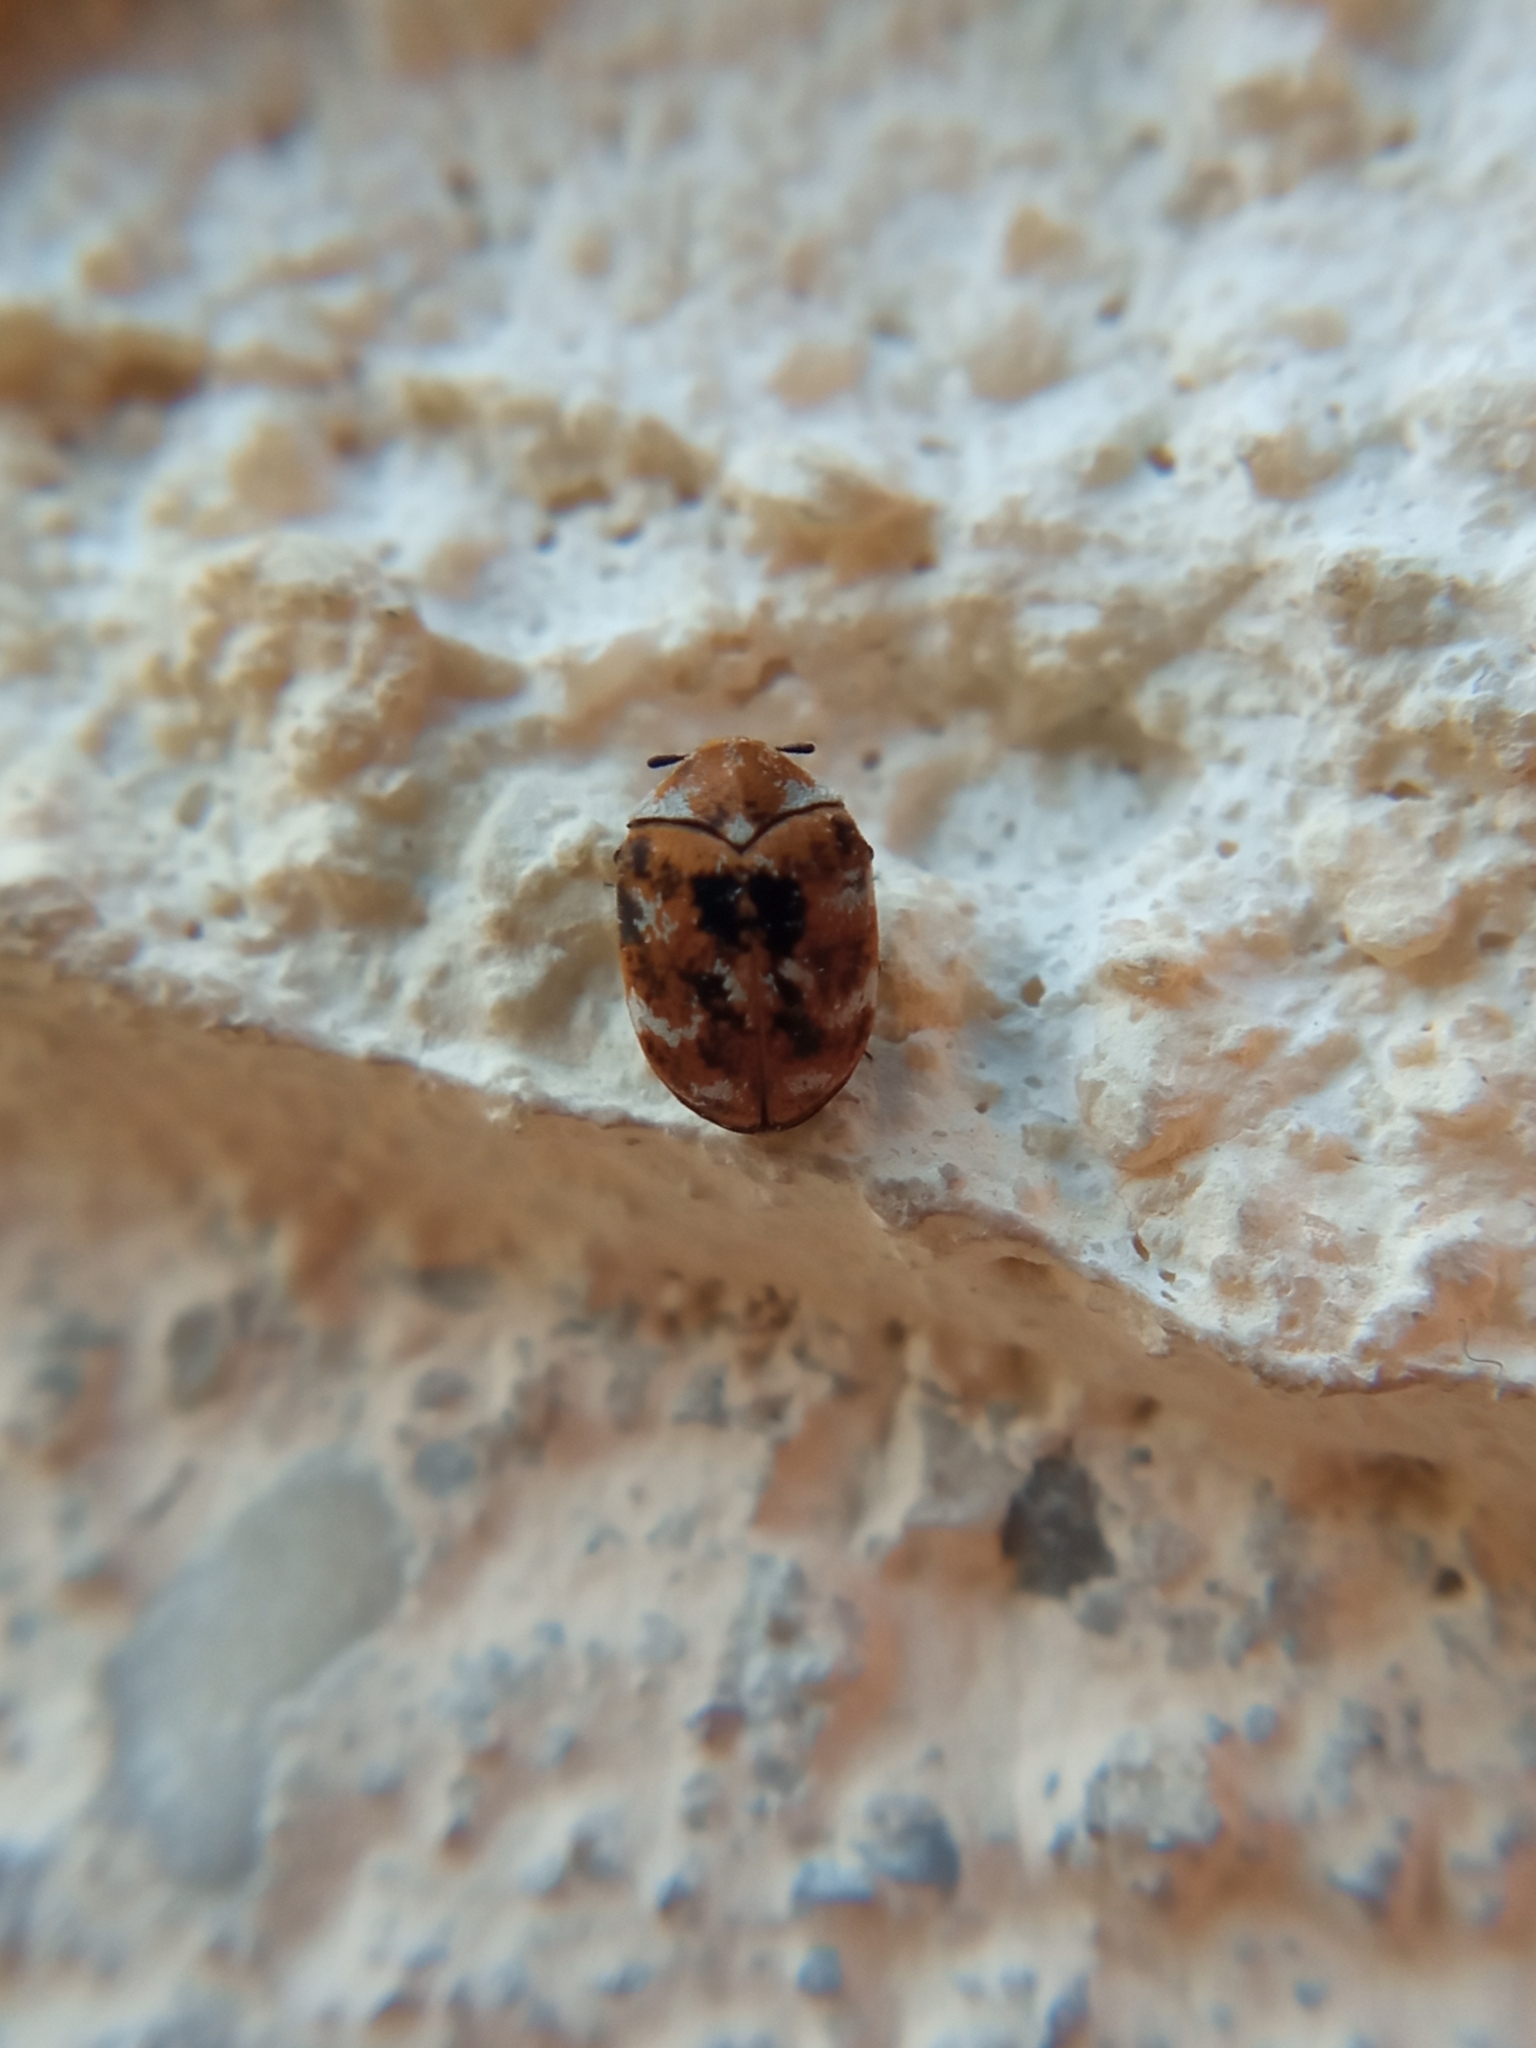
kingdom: Animalia
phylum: Arthropoda
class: Insecta
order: Coleoptera
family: Dermestidae
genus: Anthrenus
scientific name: Anthrenus verbasci
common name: Varied carpet beetle
